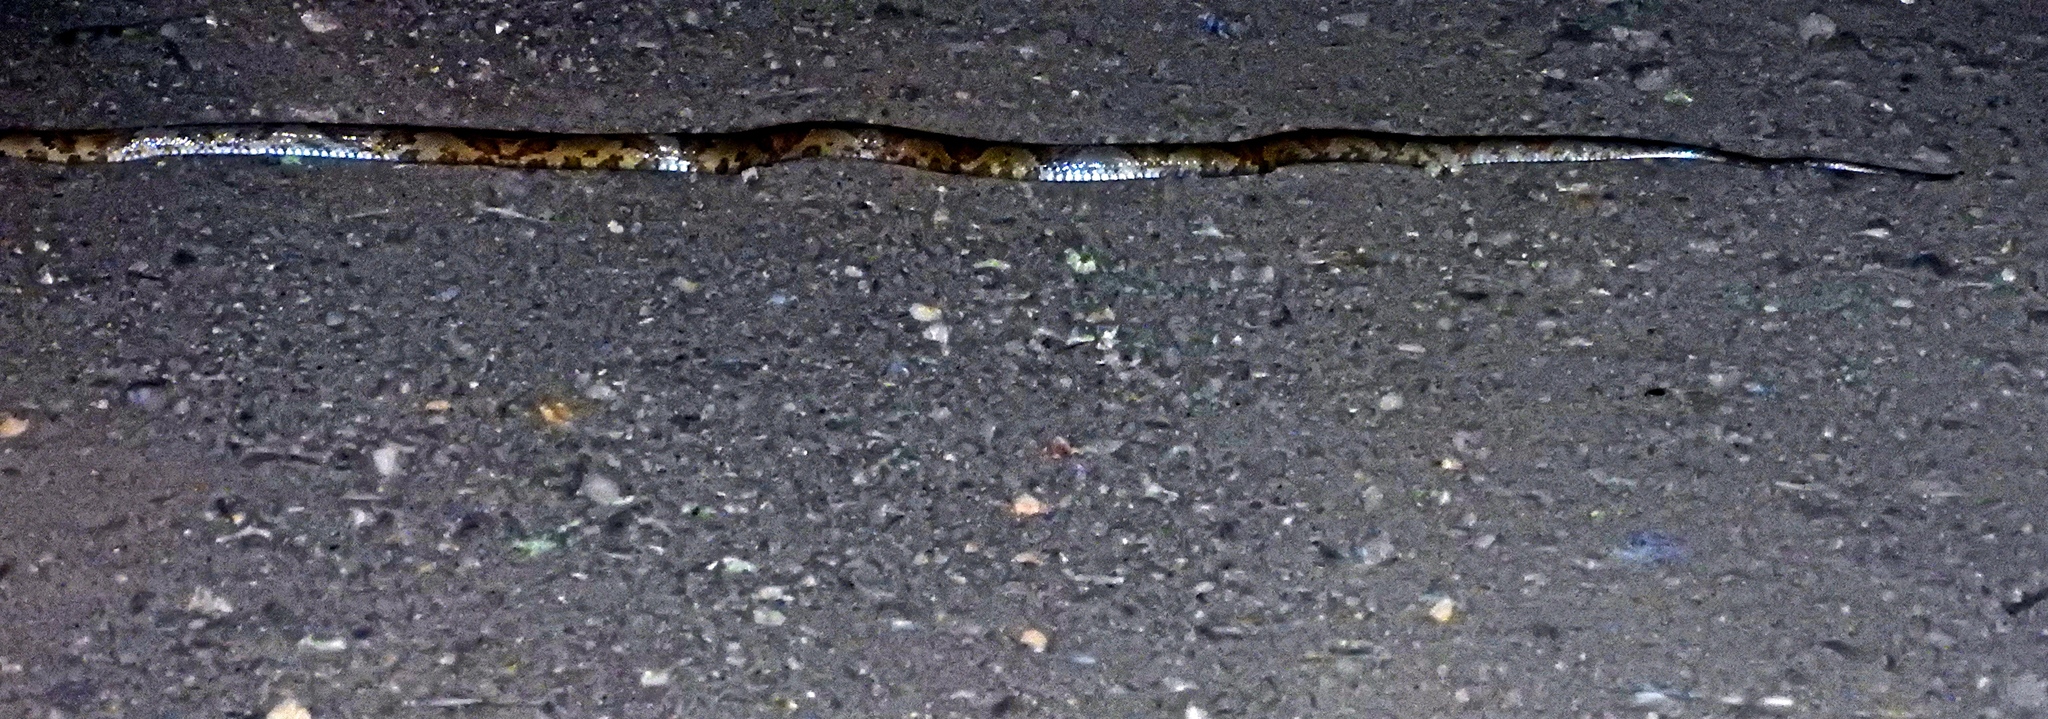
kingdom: Animalia
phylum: Chordata
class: Squamata
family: Colubridae
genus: Trimorphodon
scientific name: Trimorphodon paucimaculatus
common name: Sinaloan lyresnake
